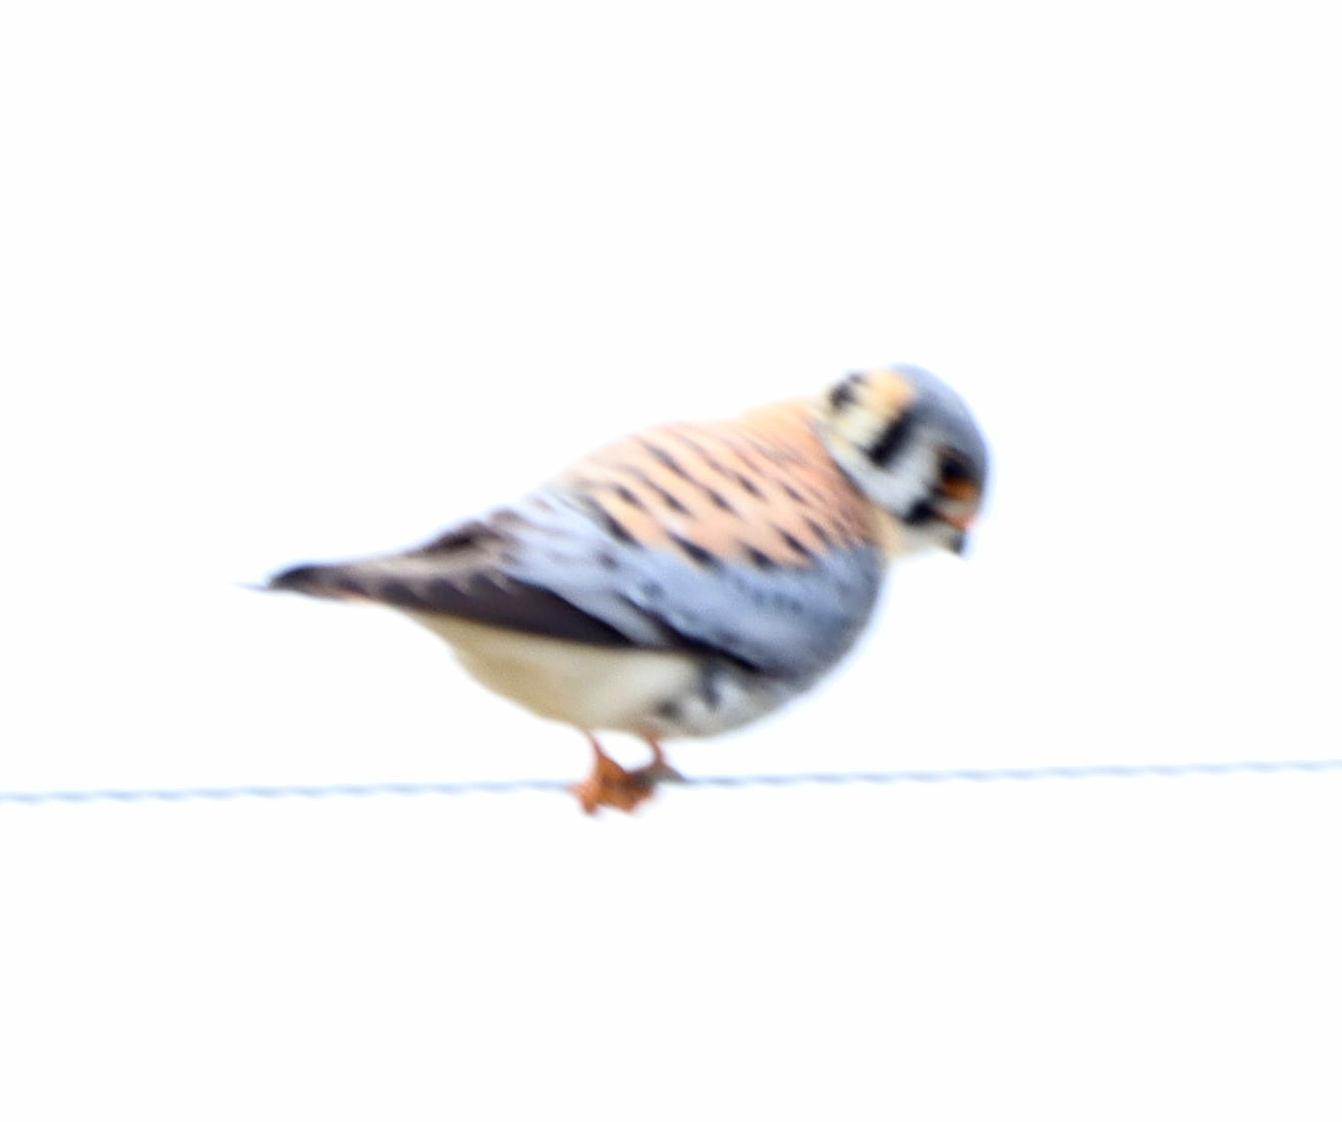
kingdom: Animalia
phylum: Chordata
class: Aves
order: Falconiformes
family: Falconidae
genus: Falco
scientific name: Falco sparverius
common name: American kestrel
